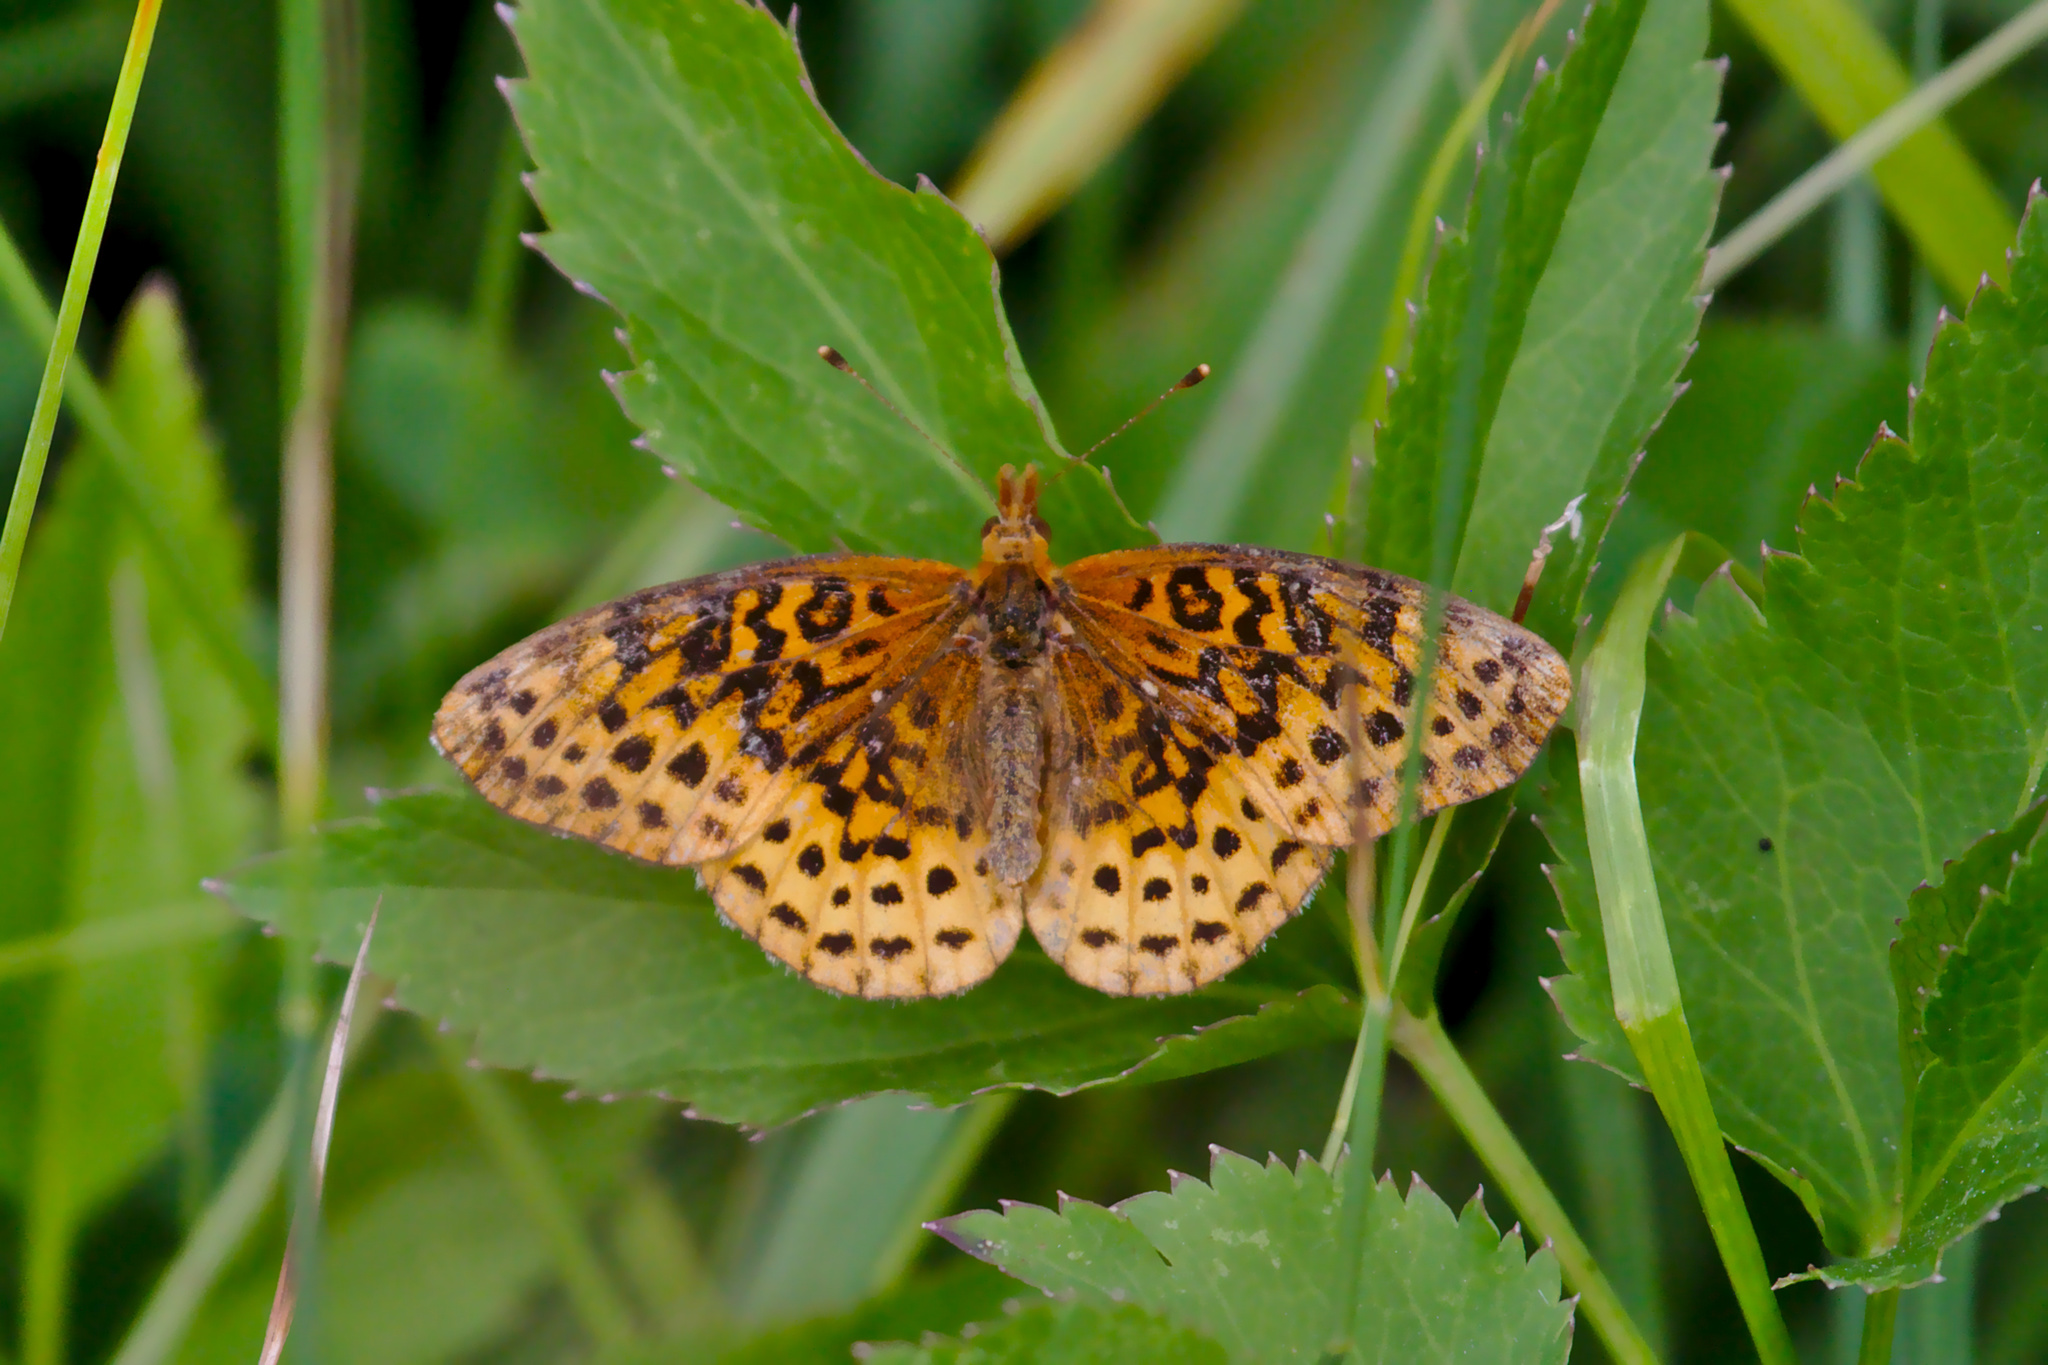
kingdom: Animalia
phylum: Arthropoda
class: Insecta
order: Lepidoptera
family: Nymphalidae
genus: Clossiana
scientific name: Clossiana toddi
